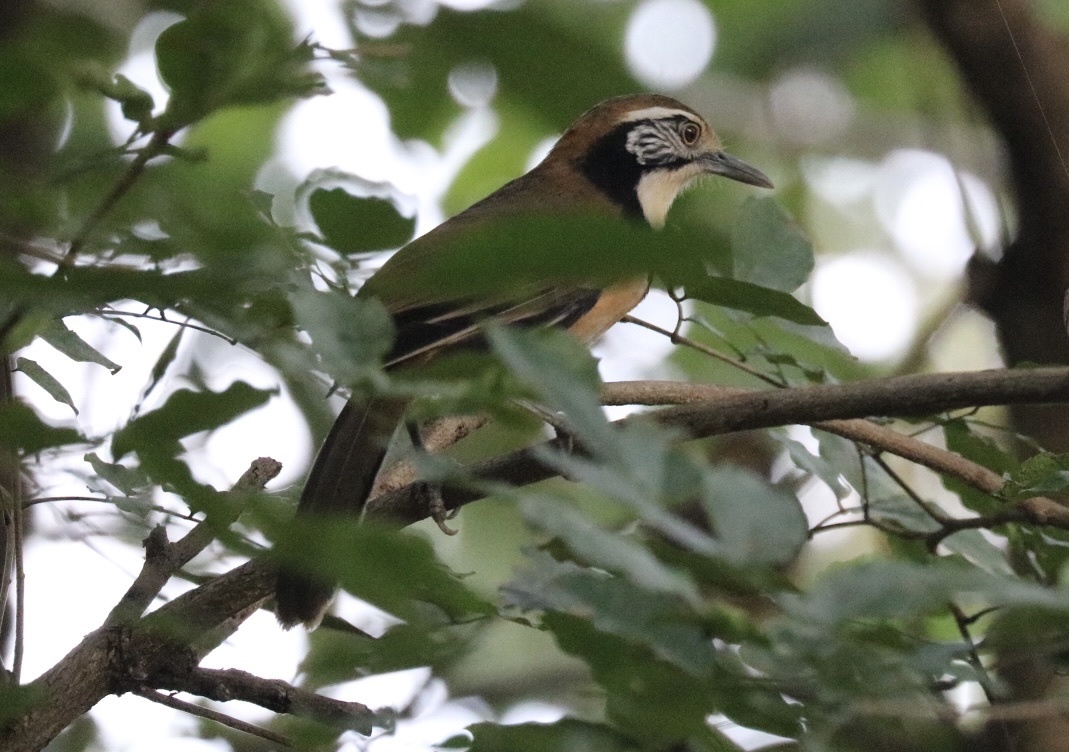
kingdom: Animalia
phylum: Chordata
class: Aves
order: Passeriformes
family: Leiothrichidae
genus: Garrulax
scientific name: Garrulax pectoralis
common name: Greater necklaced laughingthrush
